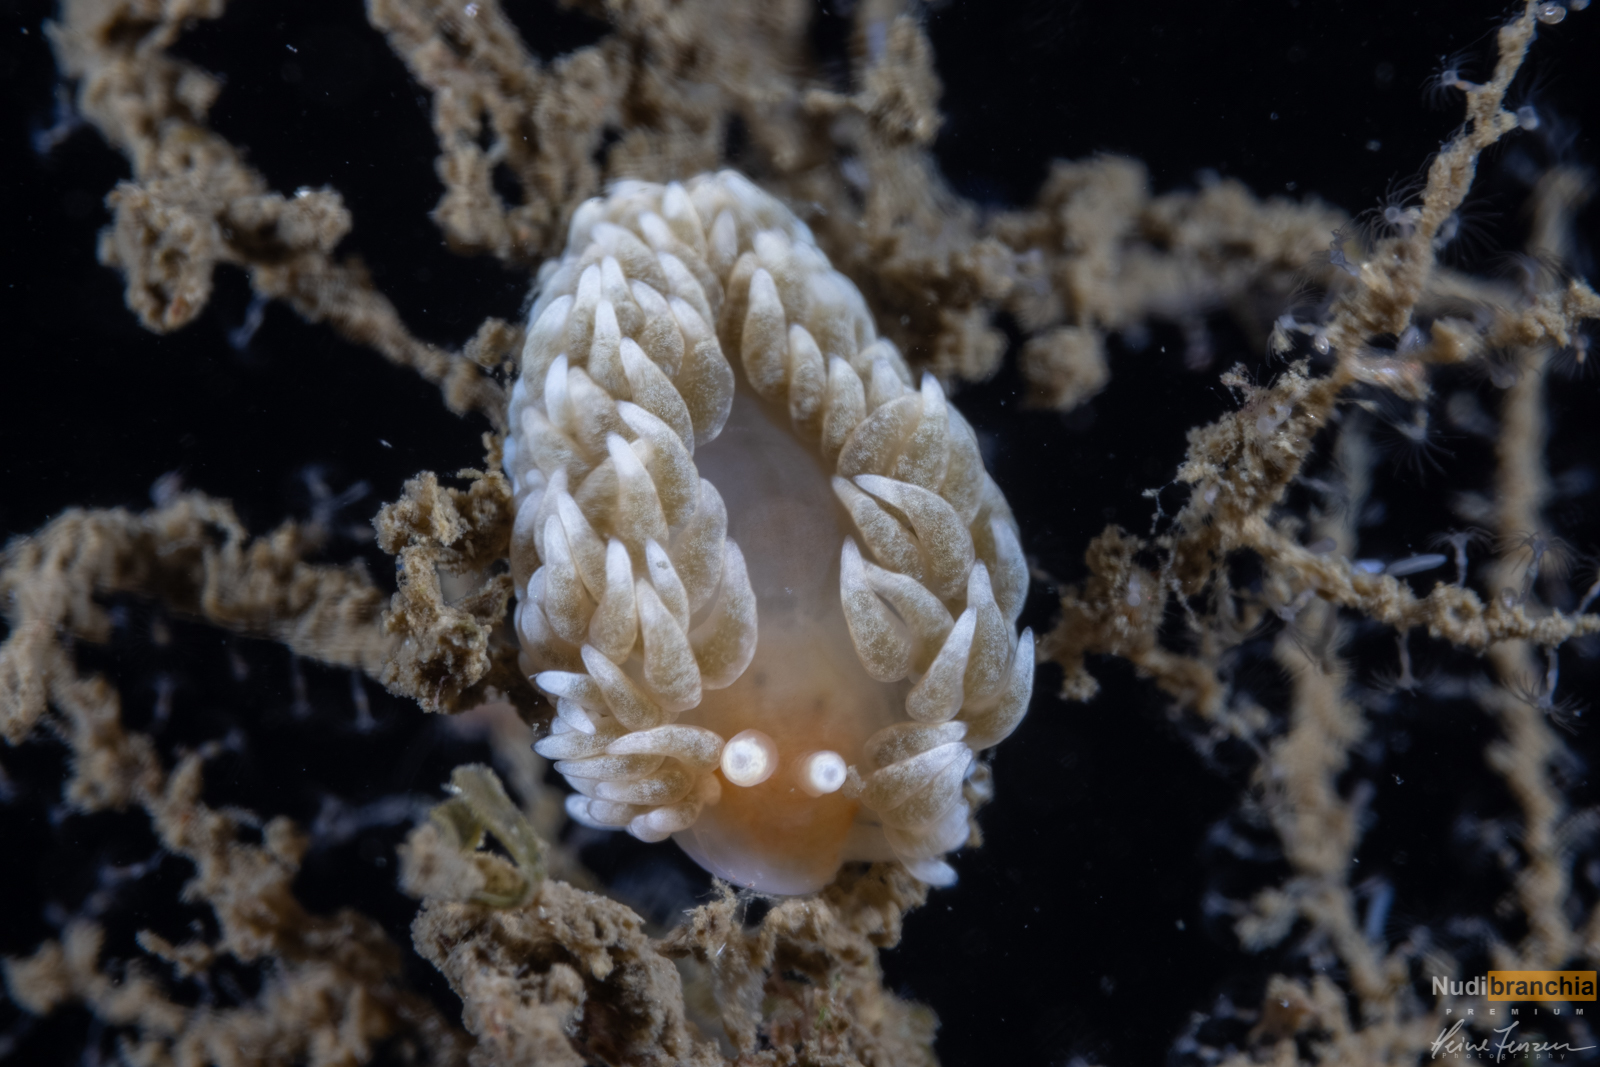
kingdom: Animalia
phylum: Mollusca
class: Gastropoda
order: Nudibranchia
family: Aeolidiidae
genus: Aeolidiella
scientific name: Aeolidiella glauca
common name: Orange-brown aeolid
